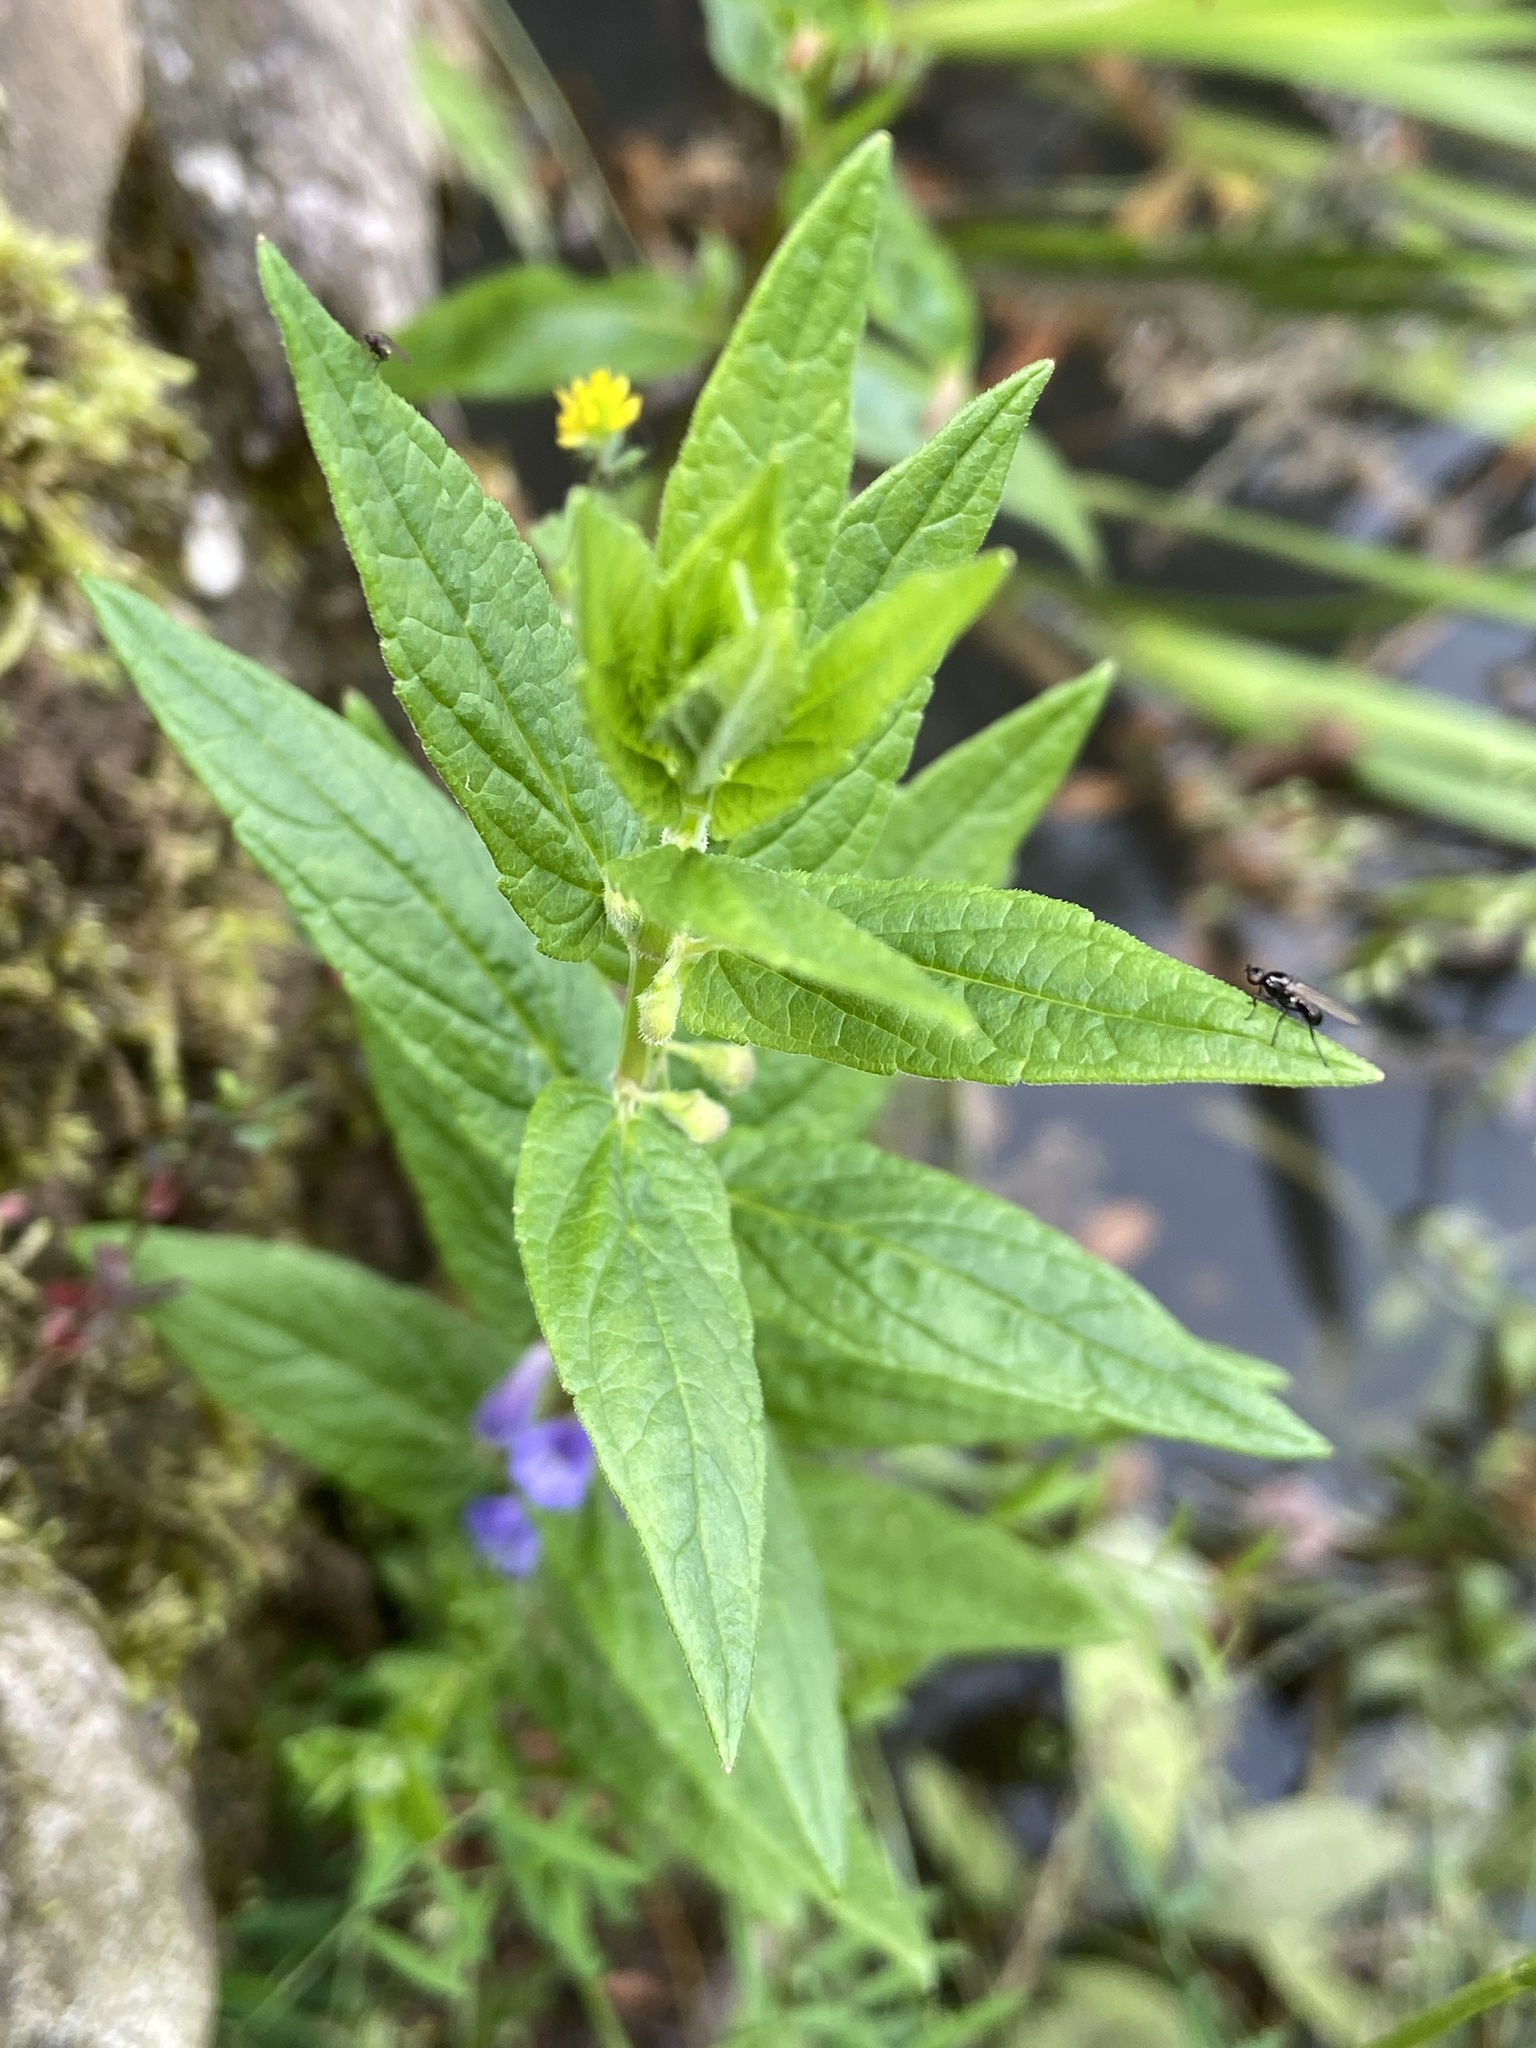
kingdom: Plantae
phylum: Tracheophyta
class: Magnoliopsida
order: Lamiales
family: Lamiaceae
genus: Scutellaria
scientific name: Scutellaria galericulata
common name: Skullcap
